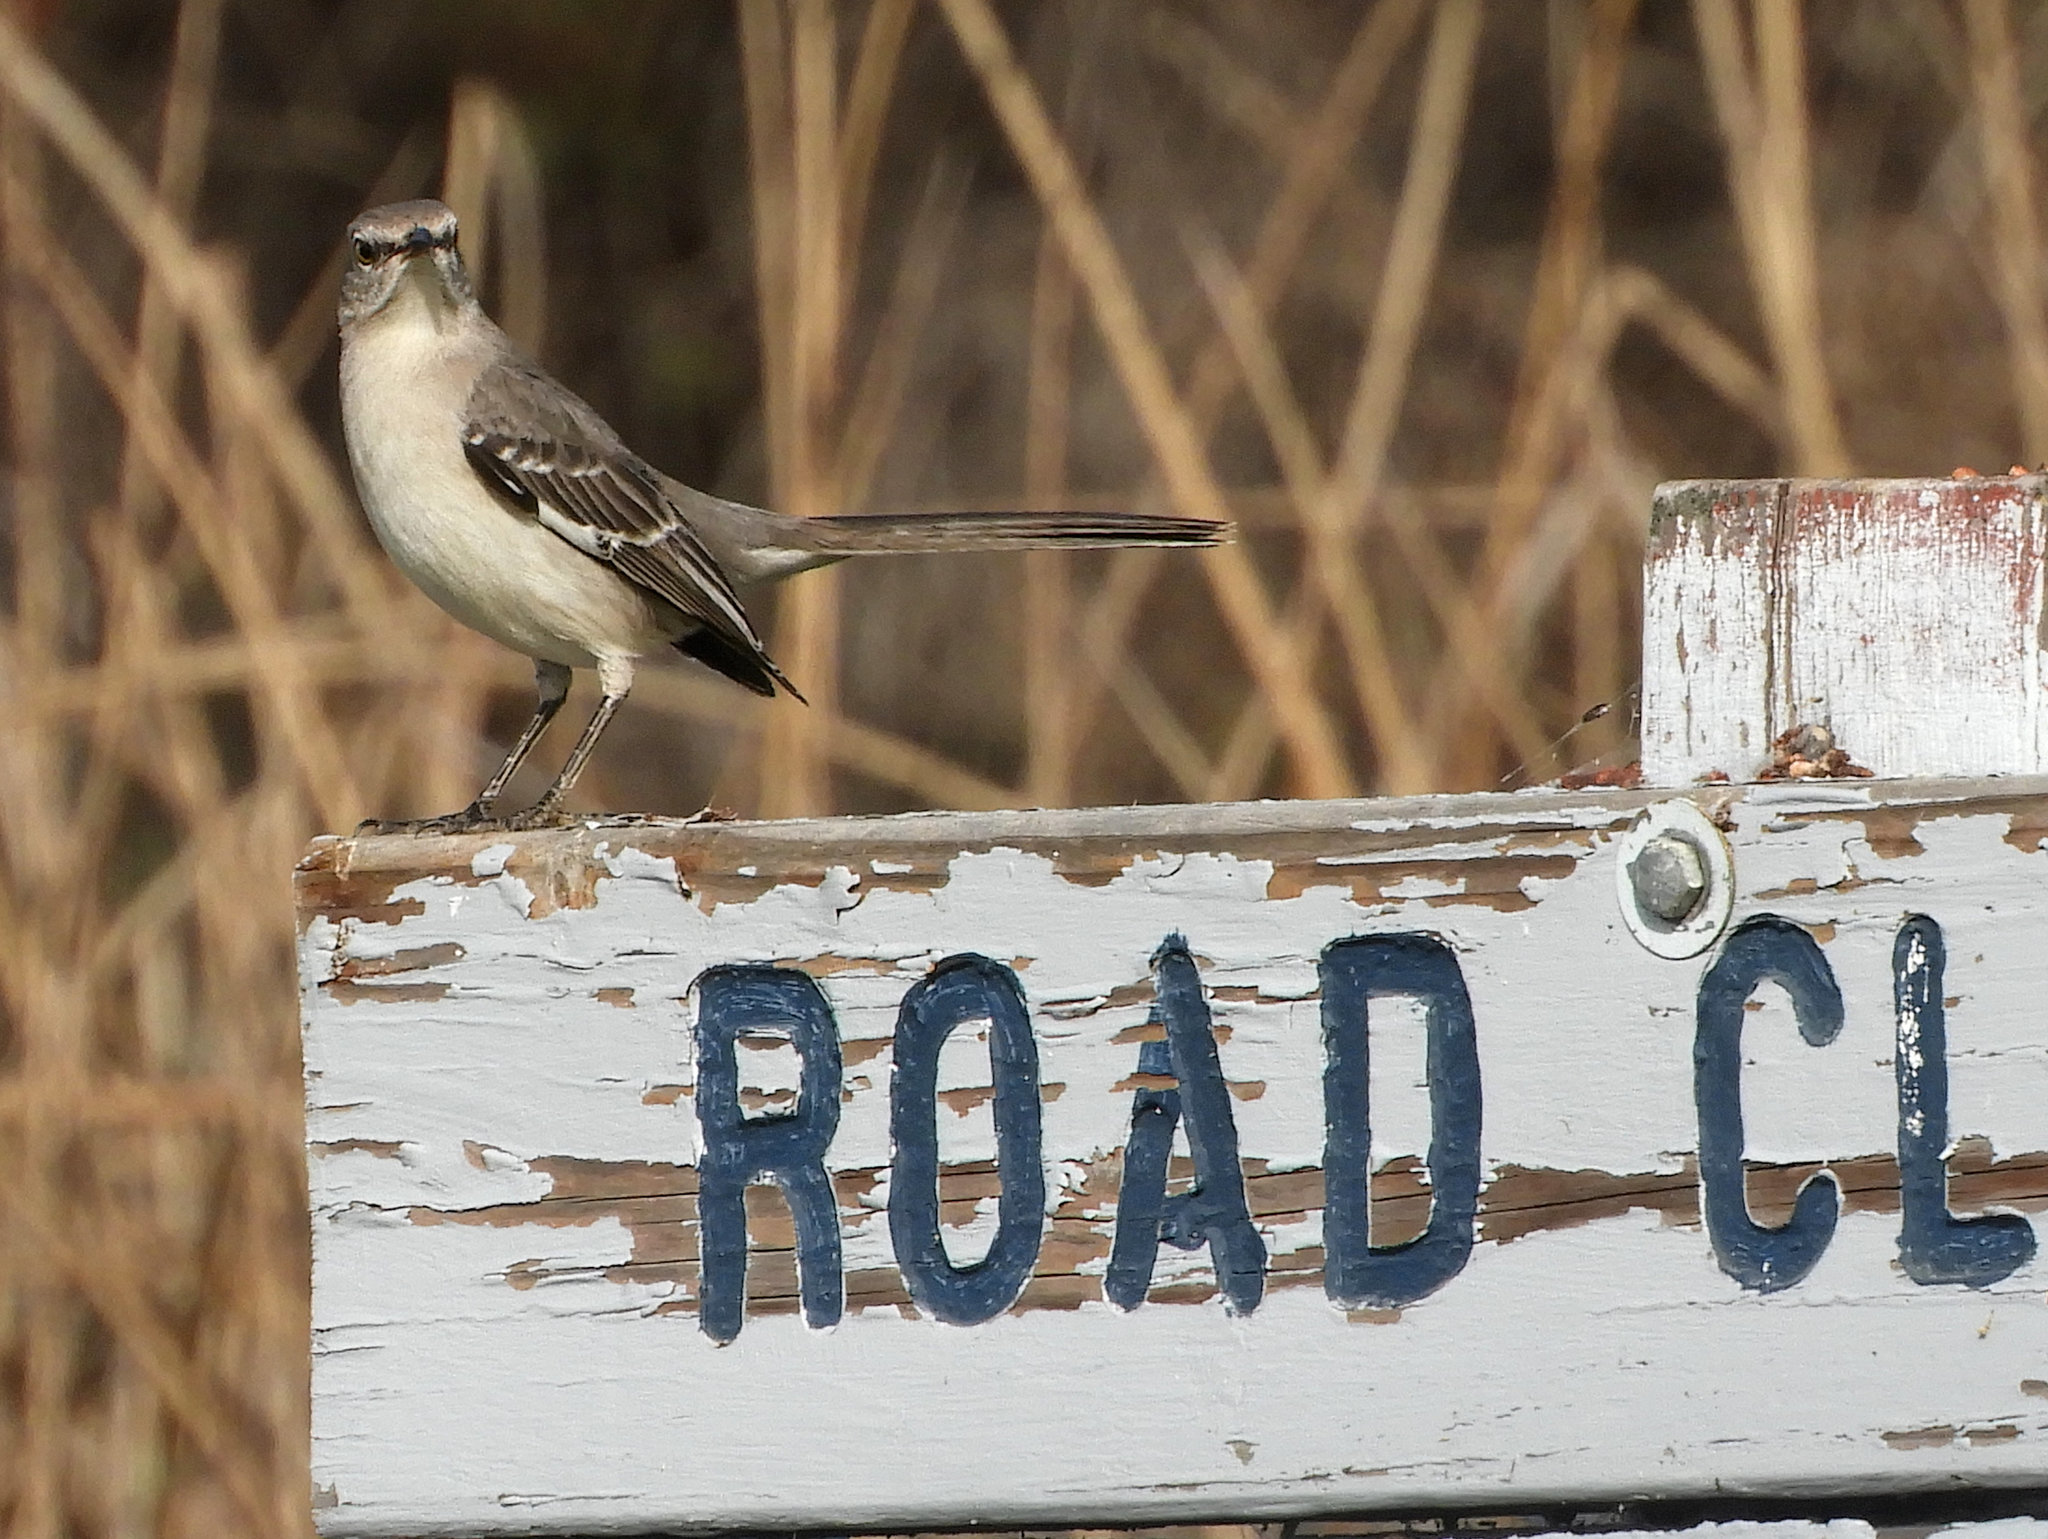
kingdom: Animalia
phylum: Chordata
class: Aves
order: Passeriformes
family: Mimidae
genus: Mimus
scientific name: Mimus polyglottos
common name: Northern mockingbird
